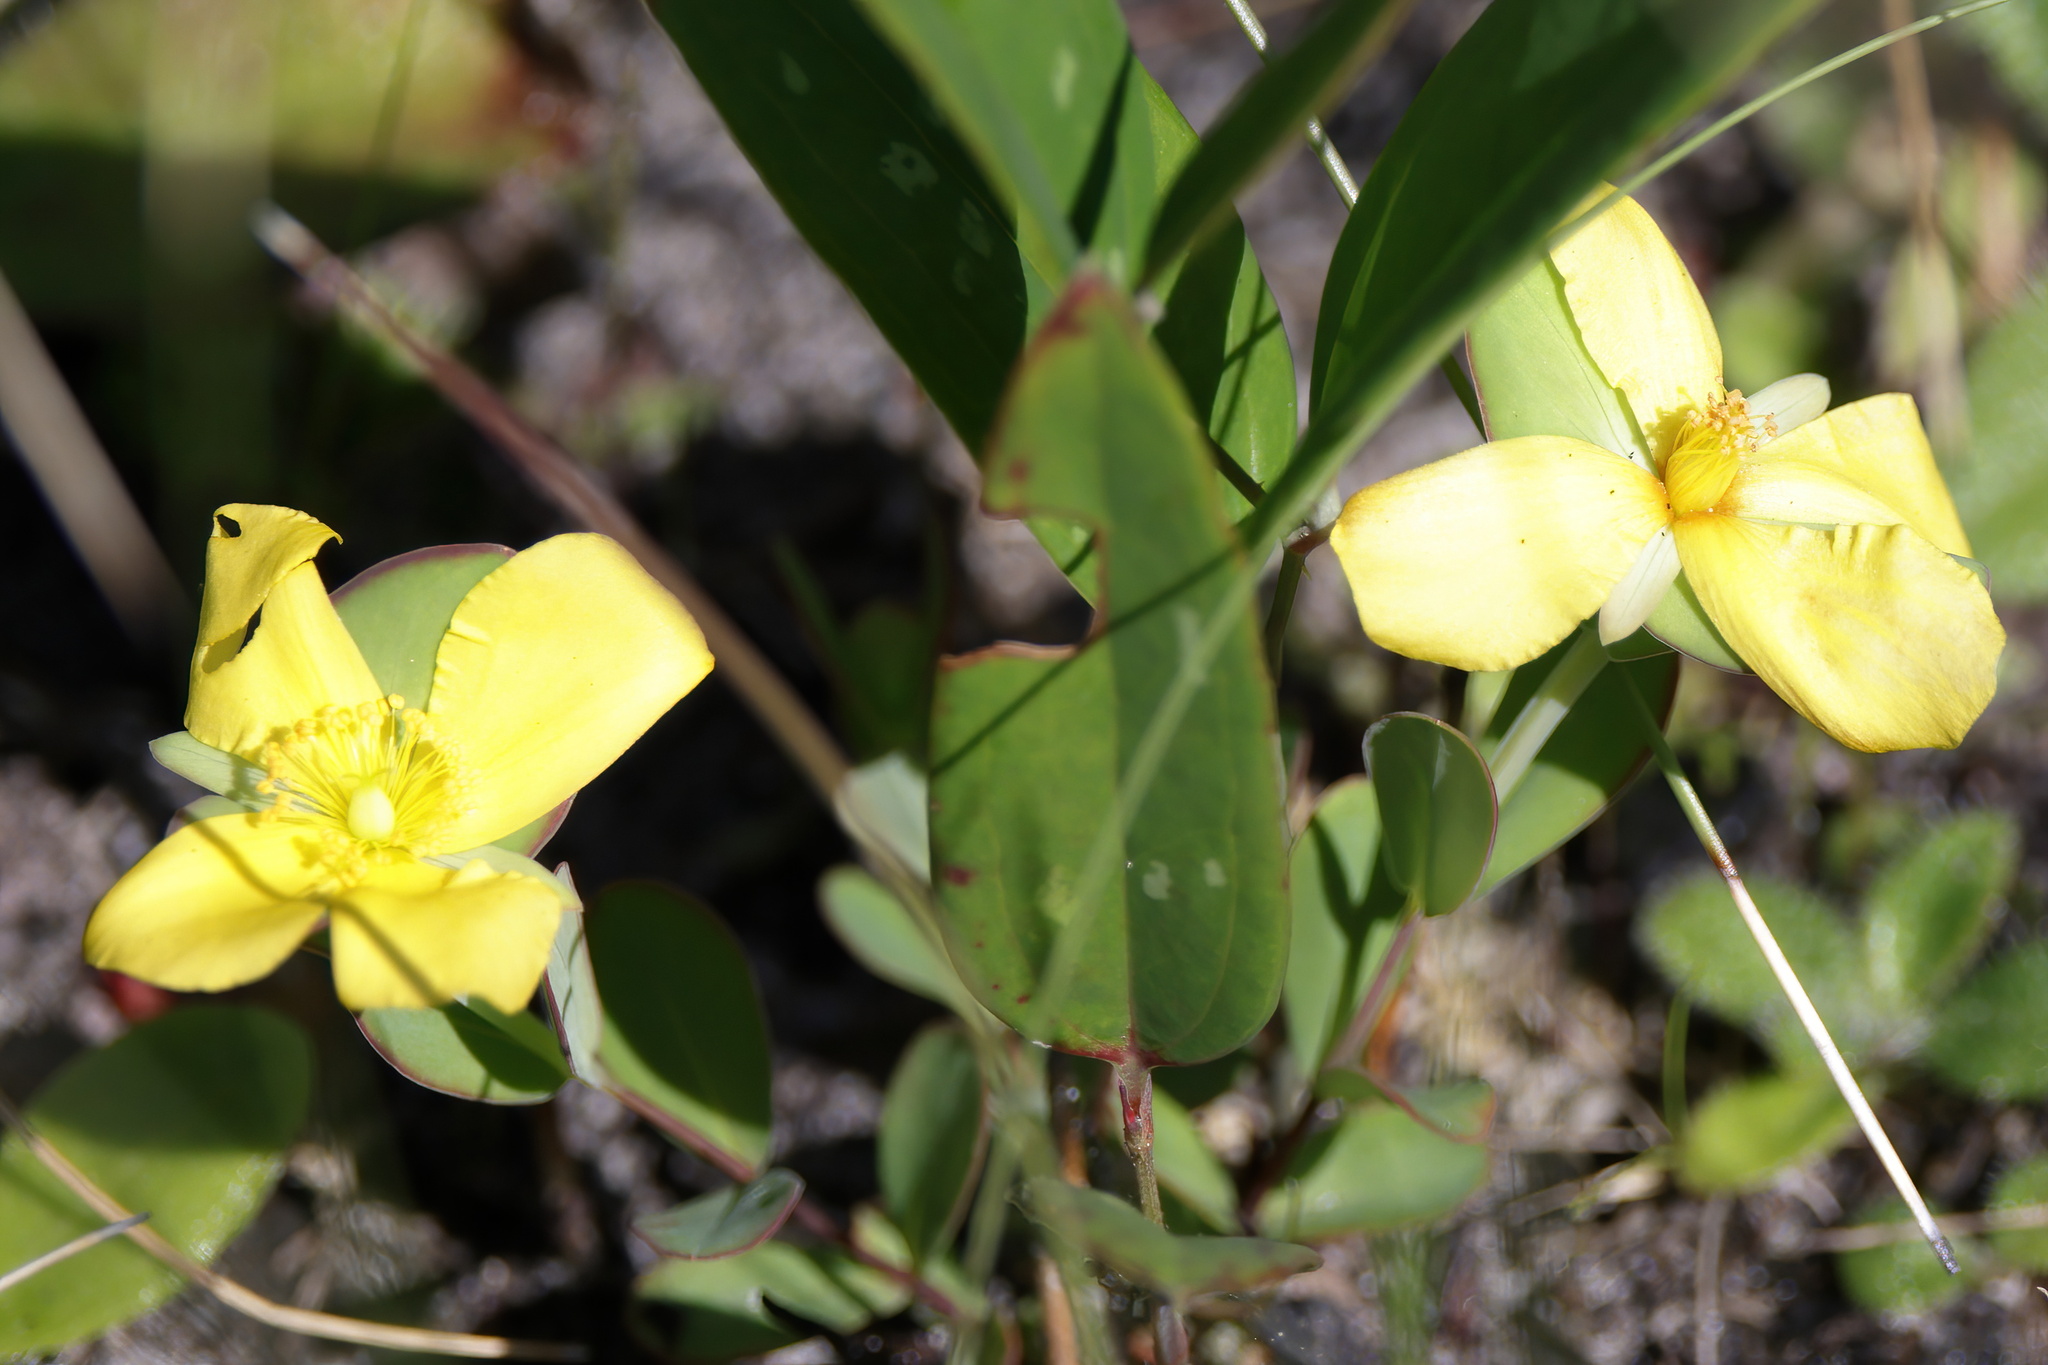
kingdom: Plantae
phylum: Tracheophyta
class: Magnoliopsida
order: Malpighiales
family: Hypericaceae
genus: Hypericum
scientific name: Hypericum crux-andreae
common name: St.-peter's-wort
